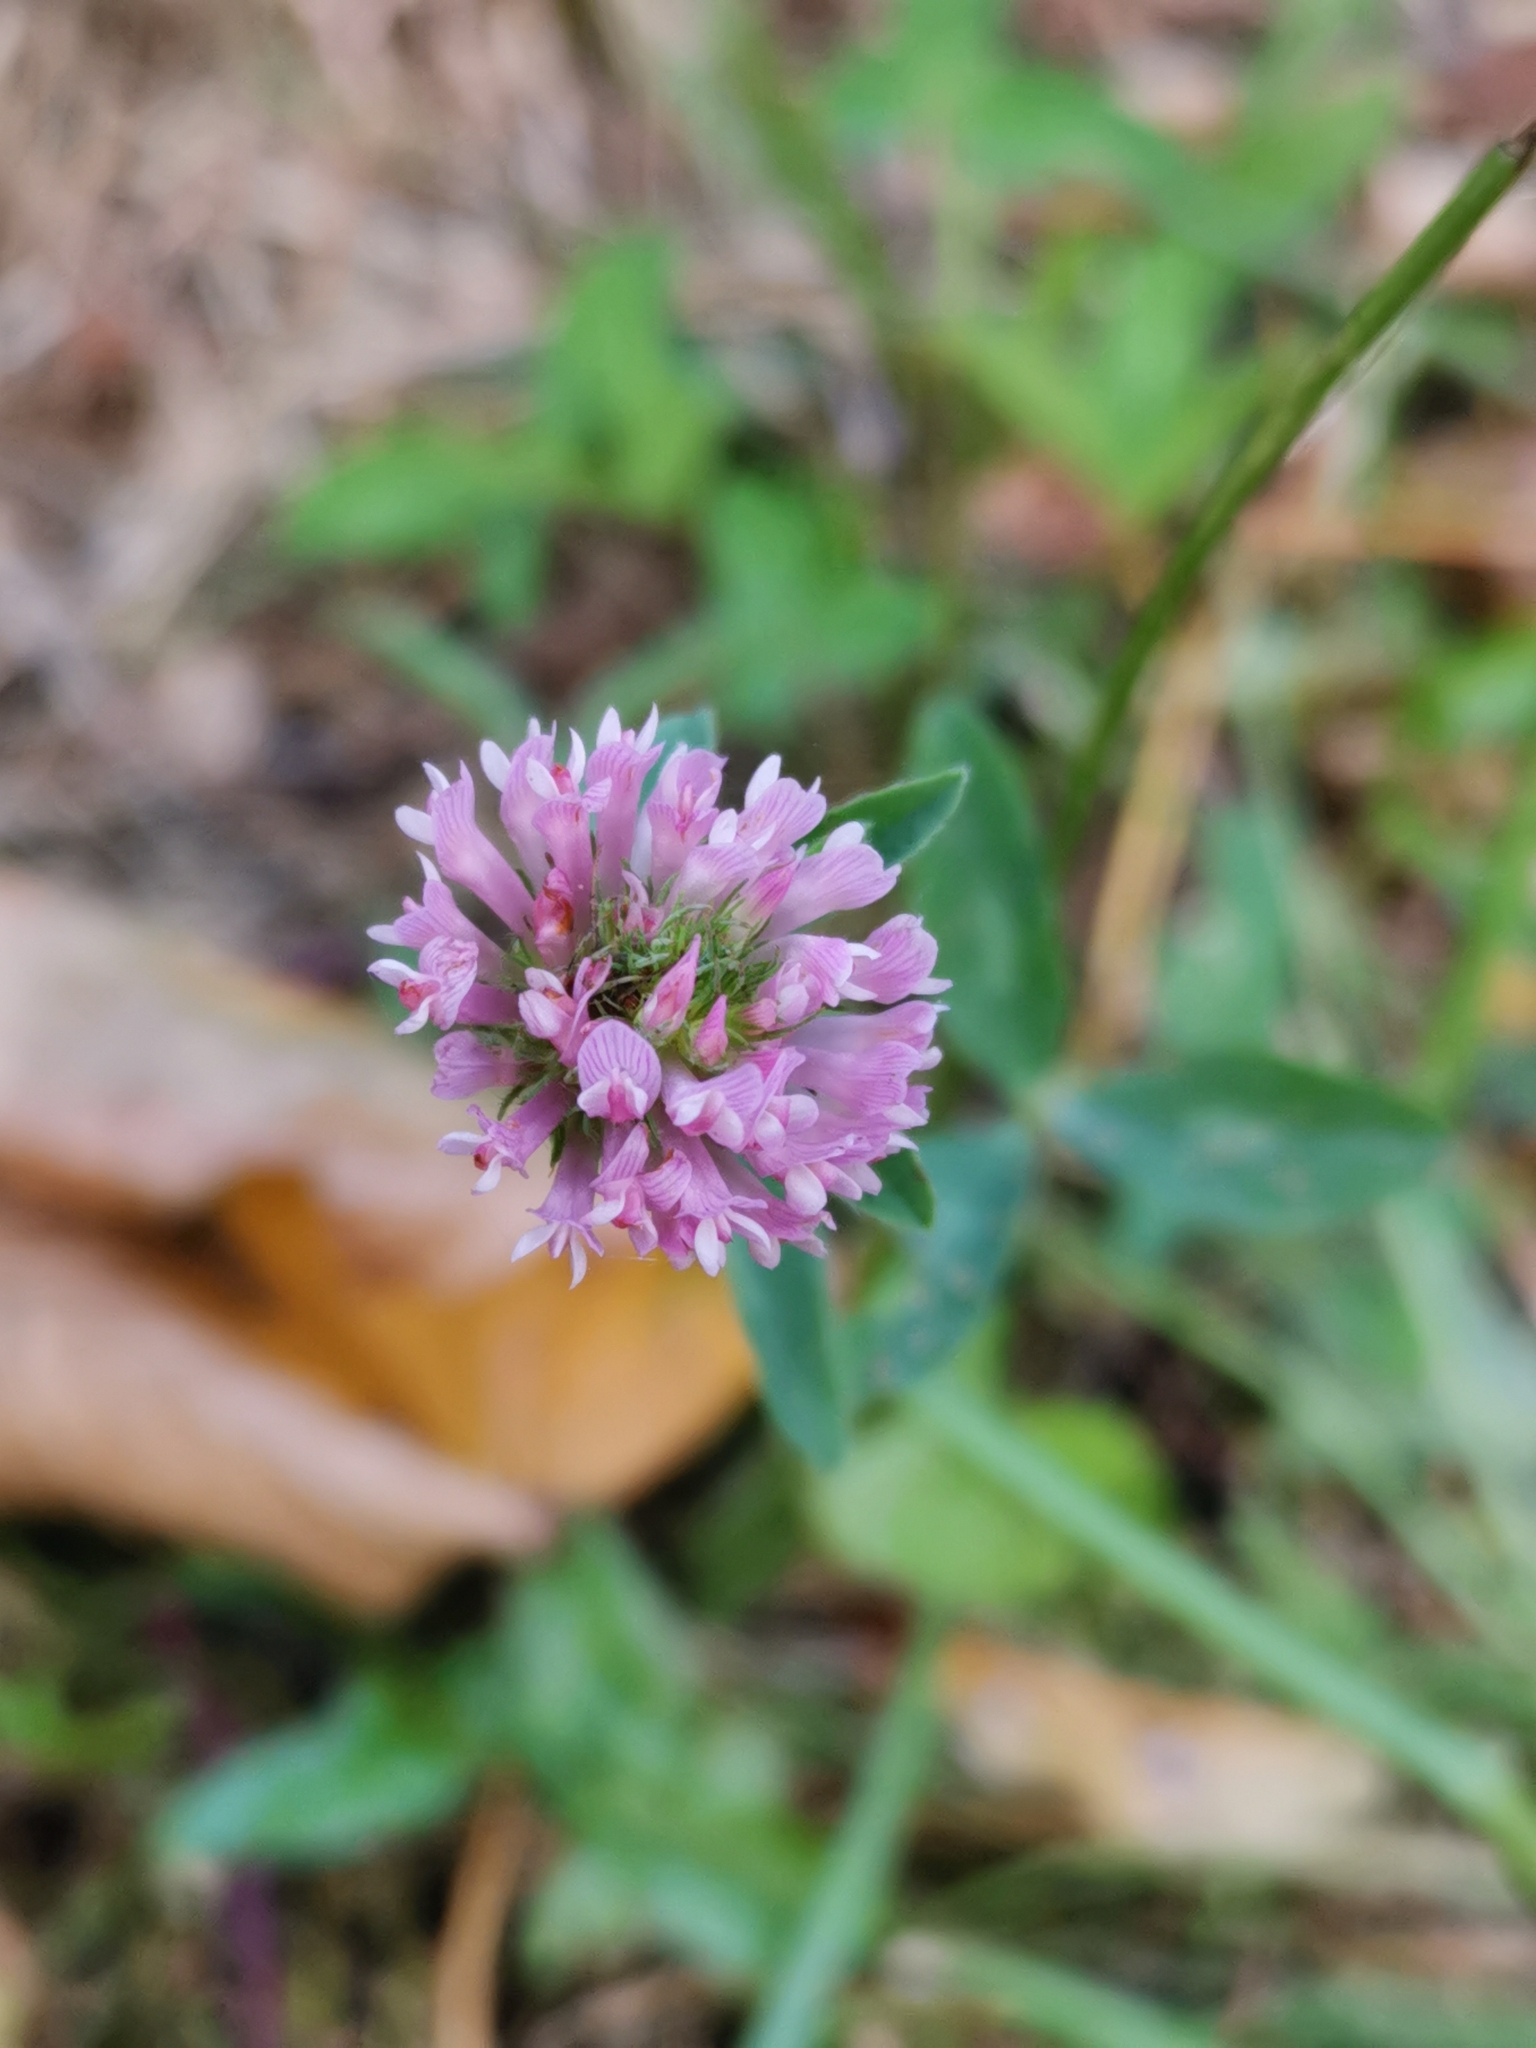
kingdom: Plantae
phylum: Tracheophyta
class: Magnoliopsida
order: Fabales
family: Fabaceae
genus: Trifolium
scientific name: Trifolium pratense
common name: Red clover
